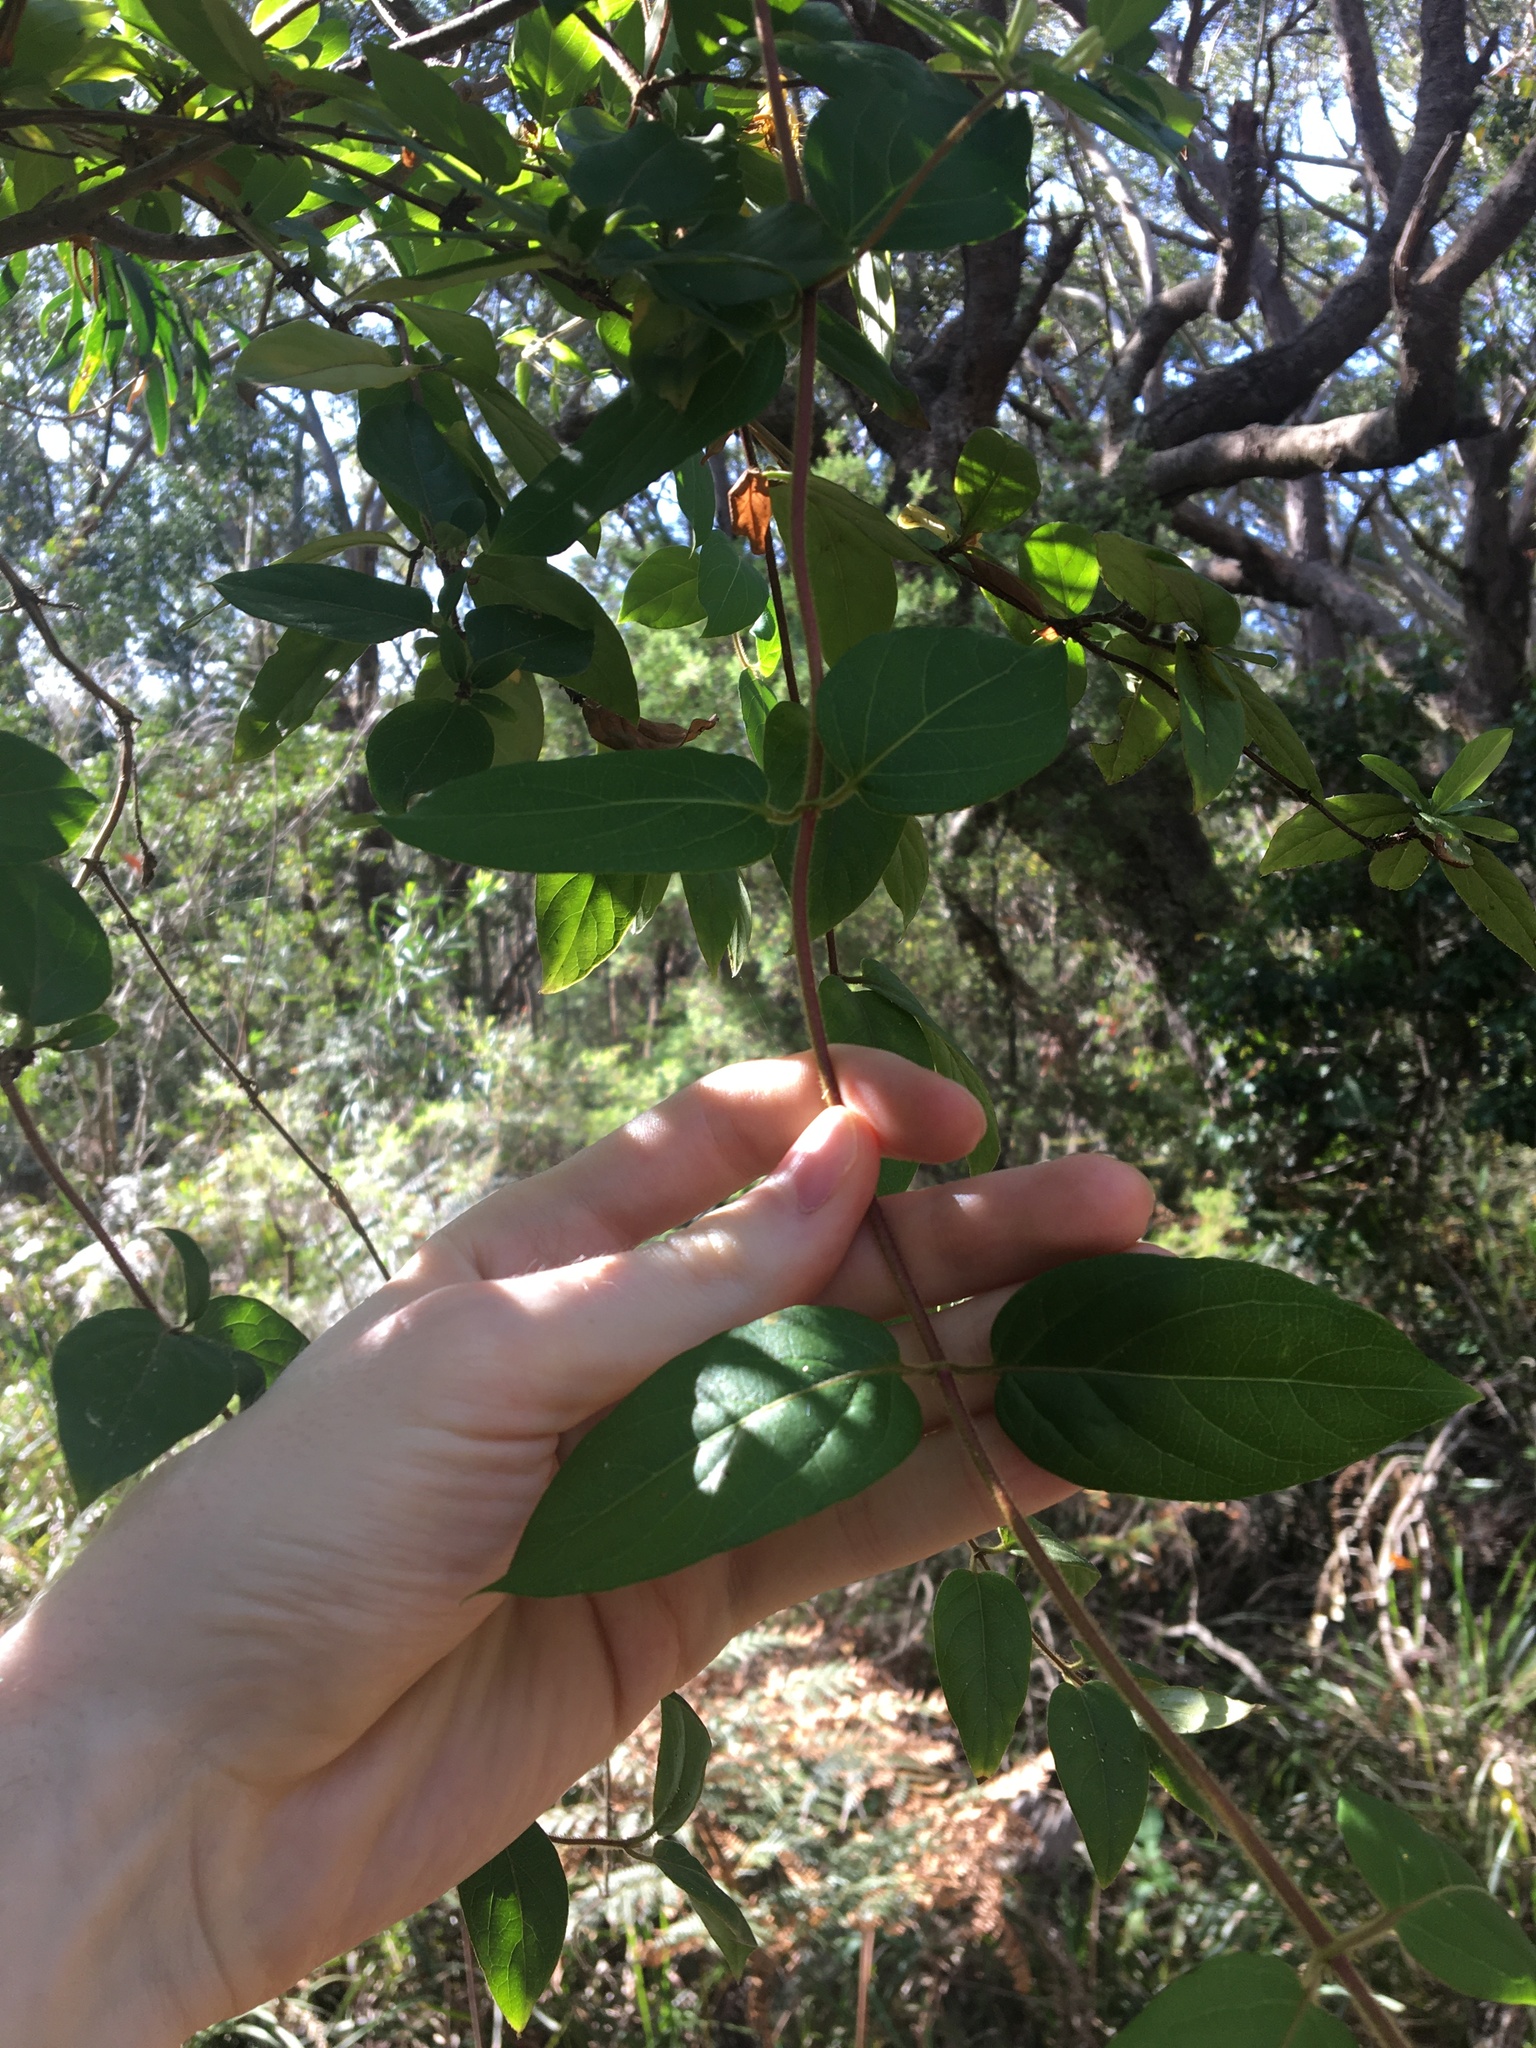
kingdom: Plantae
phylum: Tracheophyta
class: Magnoliopsida
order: Dipsacales
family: Caprifoliaceae
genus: Lonicera
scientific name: Lonicera japonica
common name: Japanese honeysuckle
